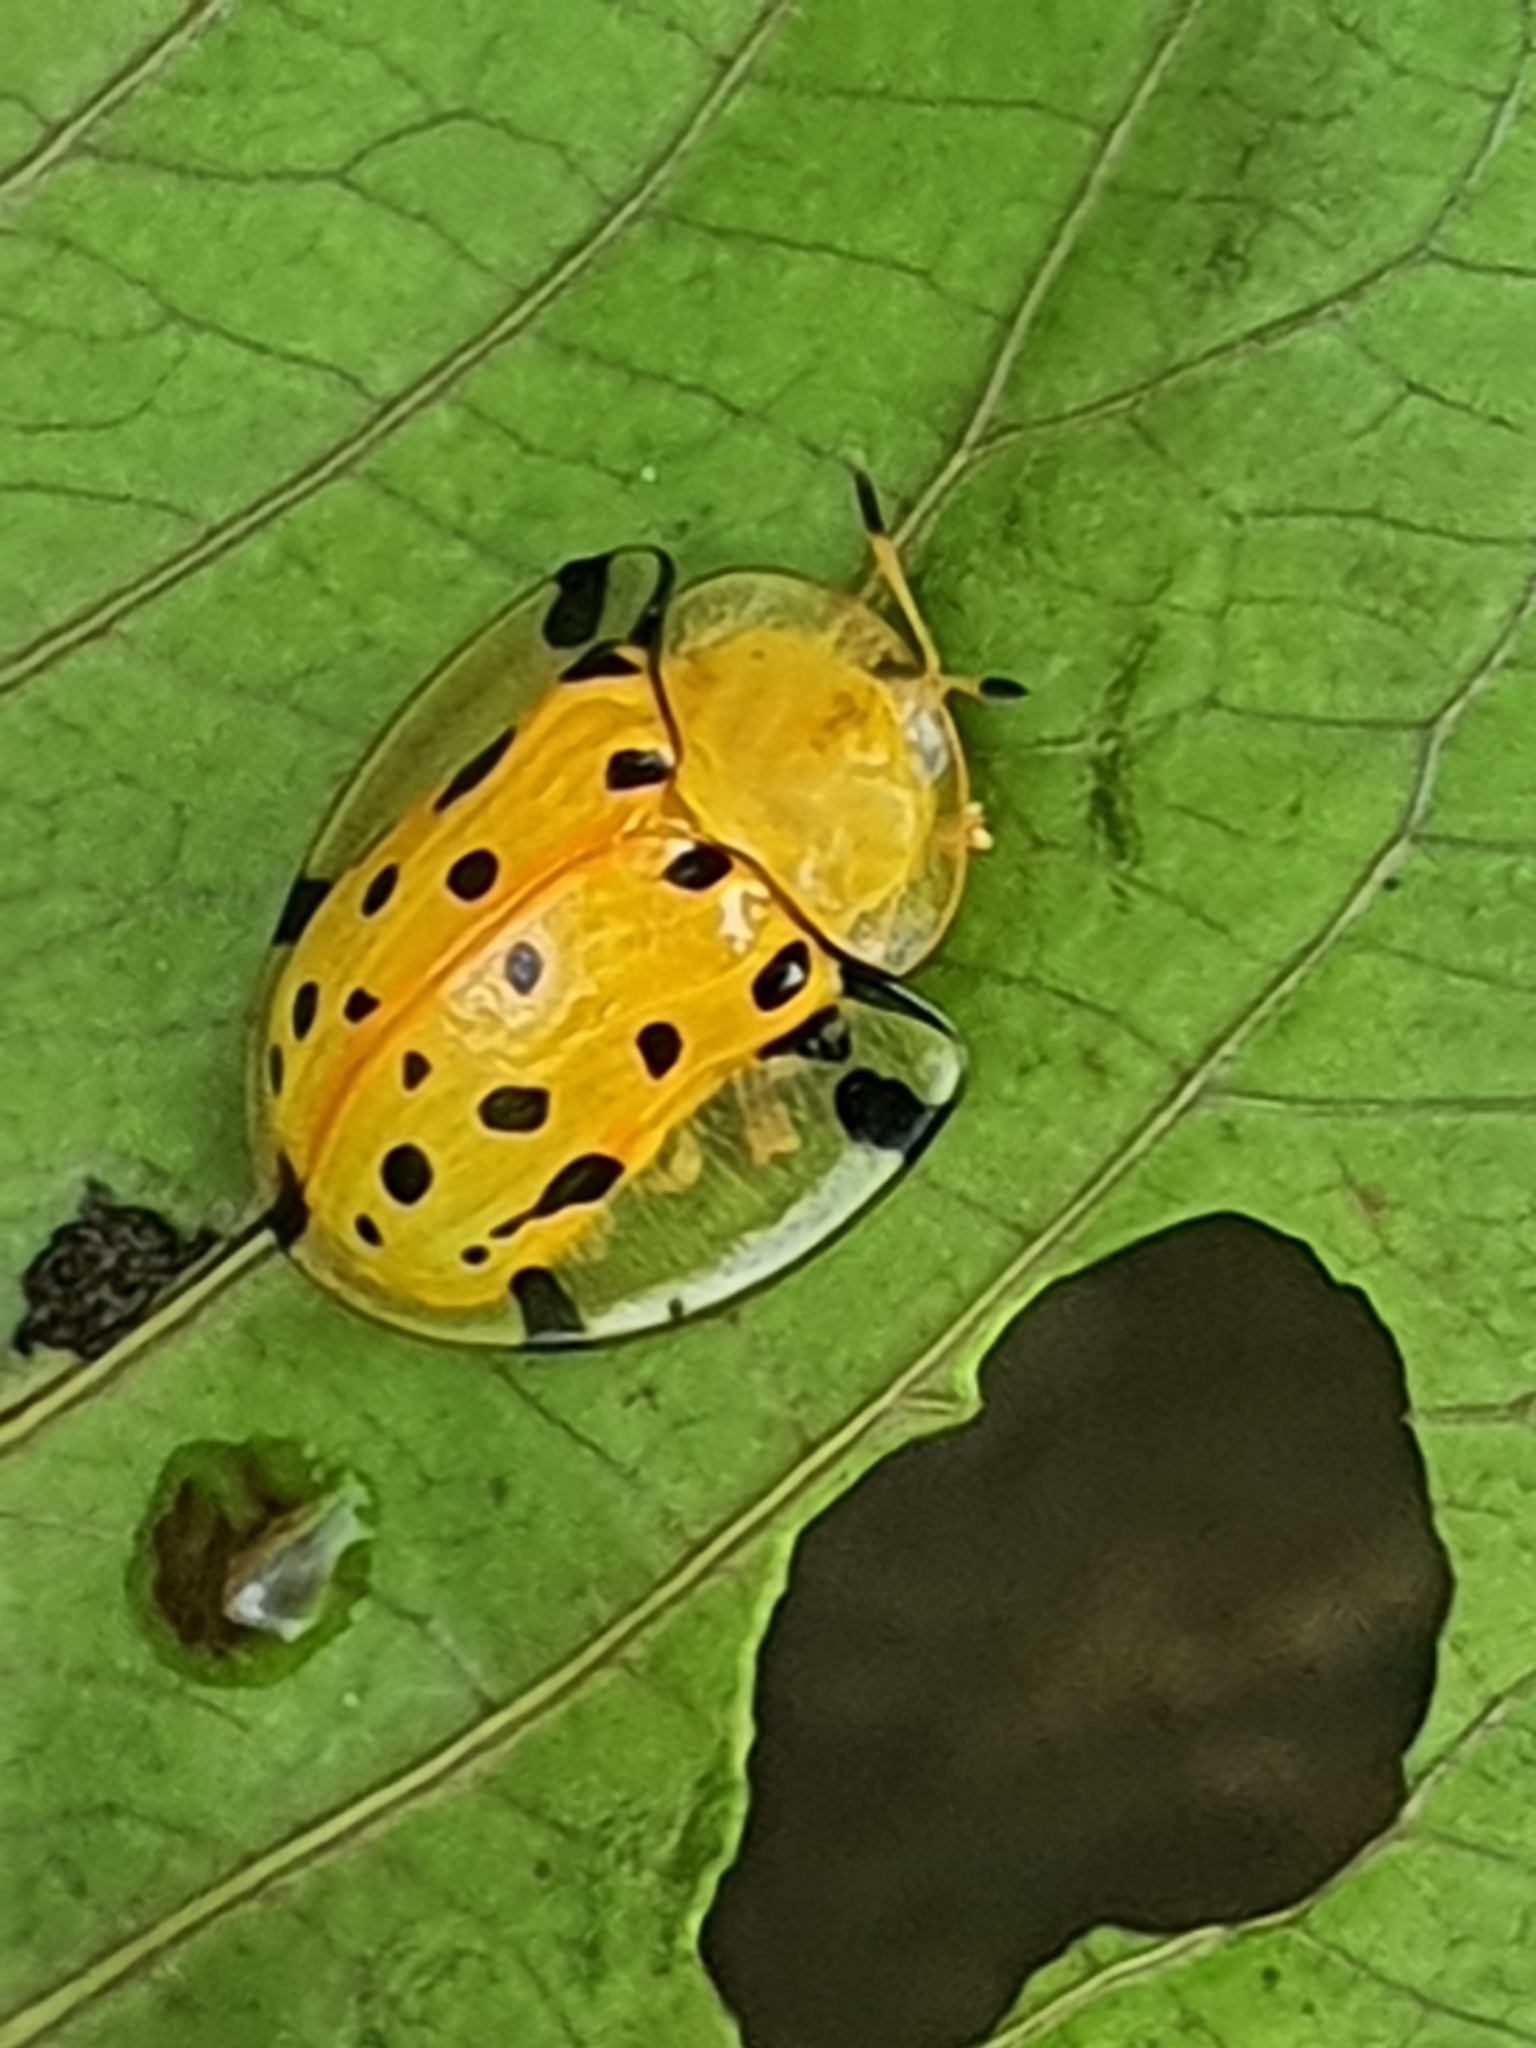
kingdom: Animalia
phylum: Arthropoda
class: Insecta
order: Coleoptera
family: Chrysomelidae
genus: Aspidimorpha
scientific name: Aspidimorpha miliaris
